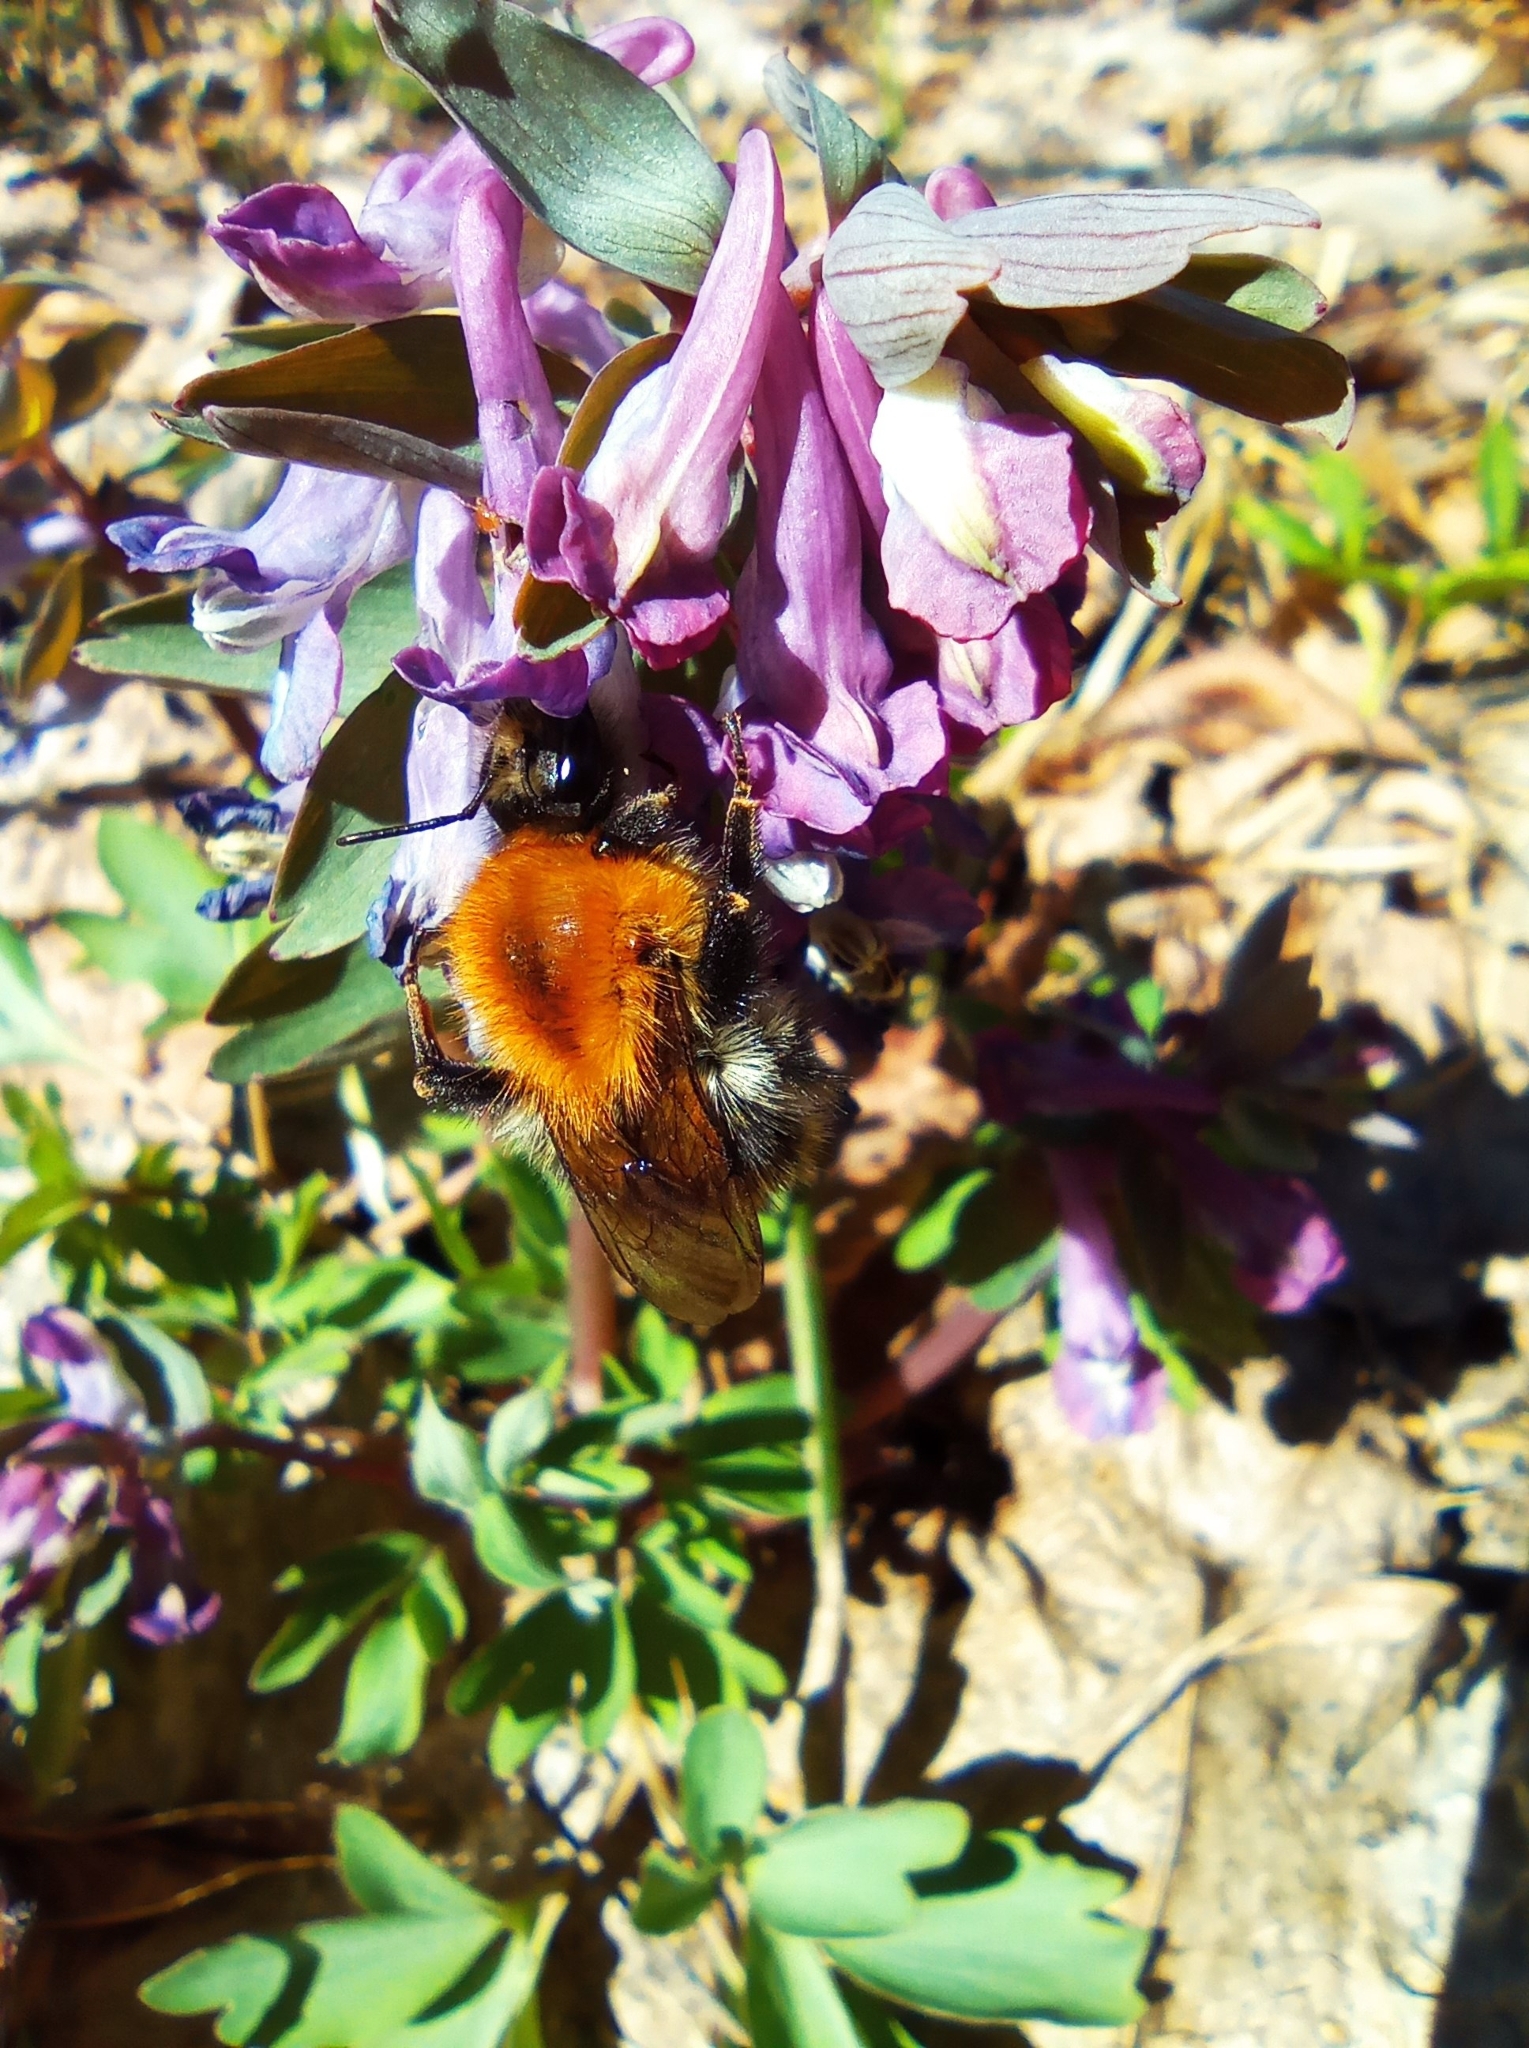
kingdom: Animalia
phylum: Arthropoda
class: Insecta
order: Hymenoptera
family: Apidae
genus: Bombus
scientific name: Bombus pascuorum
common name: Common carder bee
